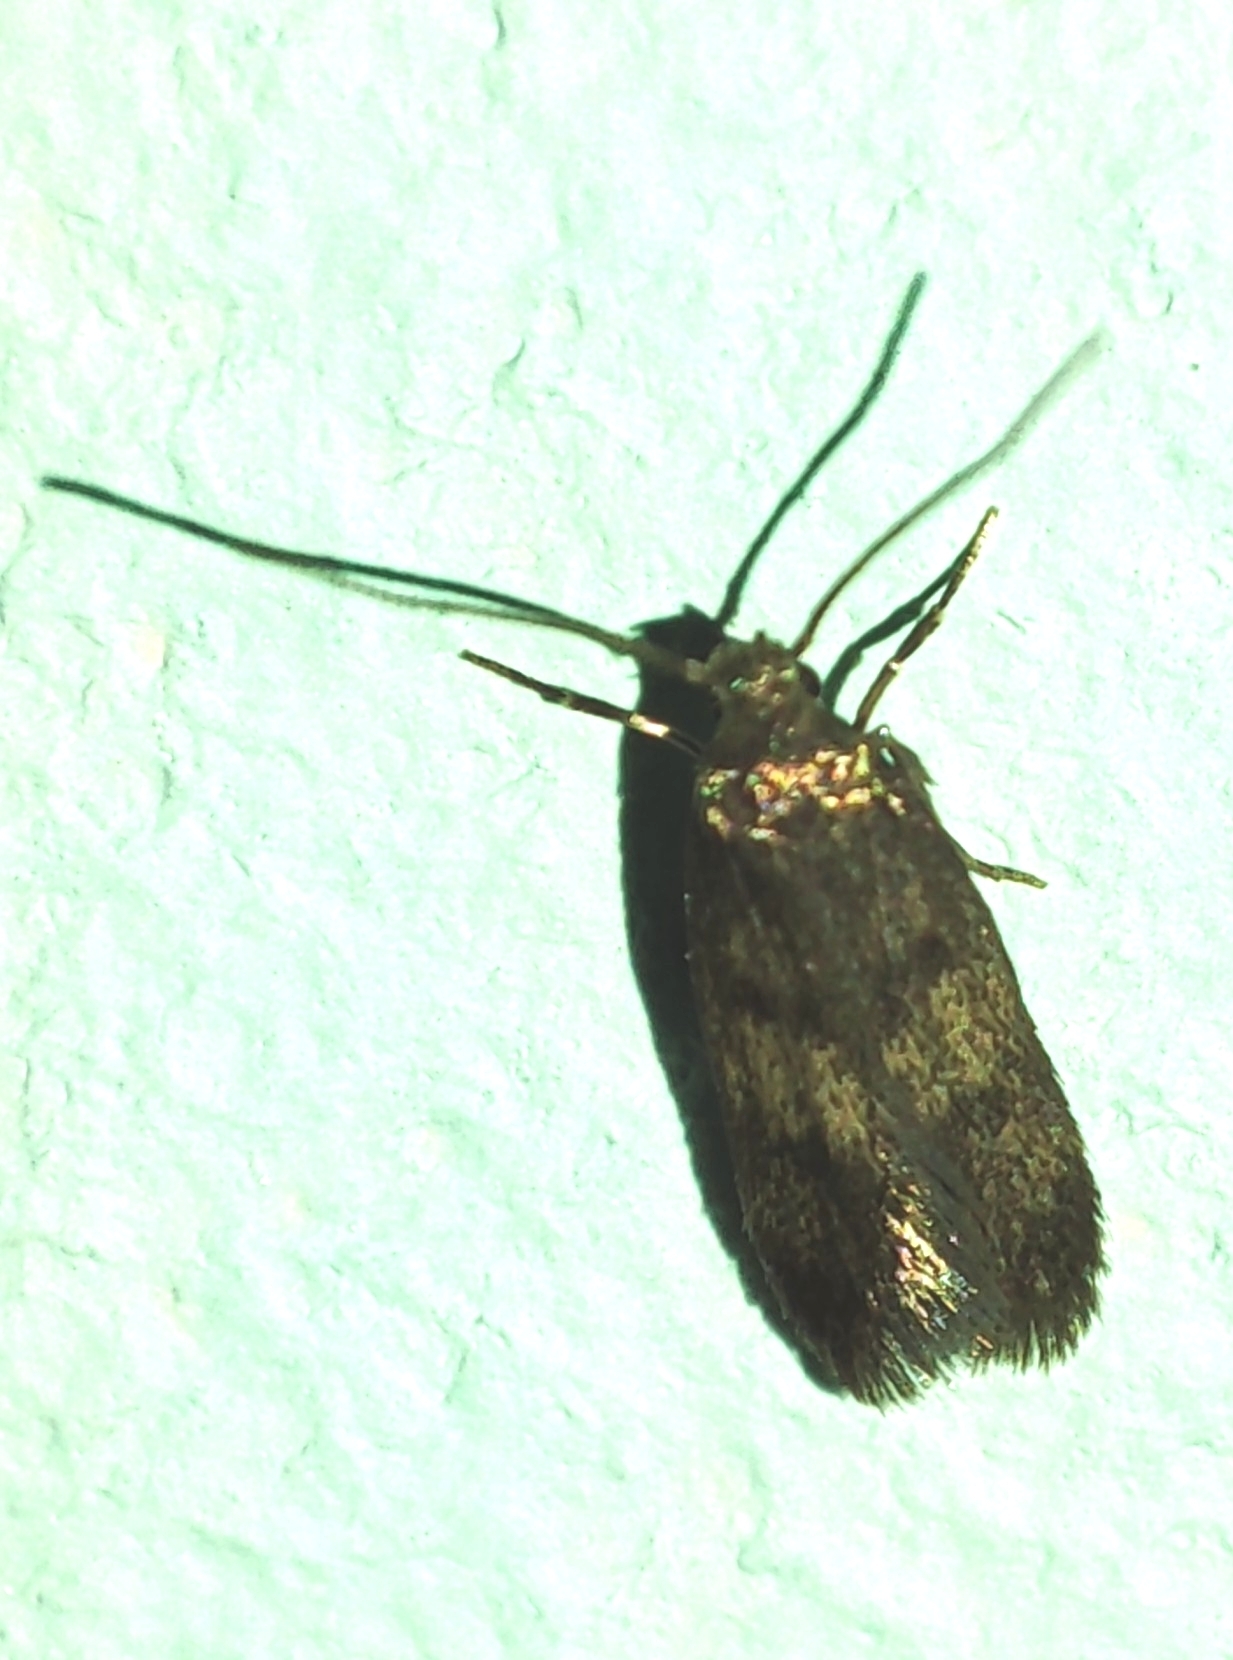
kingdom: Animalia
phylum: Arthropoda
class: Insecta
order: Lepidoptera
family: Oecophoridae
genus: Borkhausenia
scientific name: Borkhausenia fuscescens
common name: Small dingy tubic
